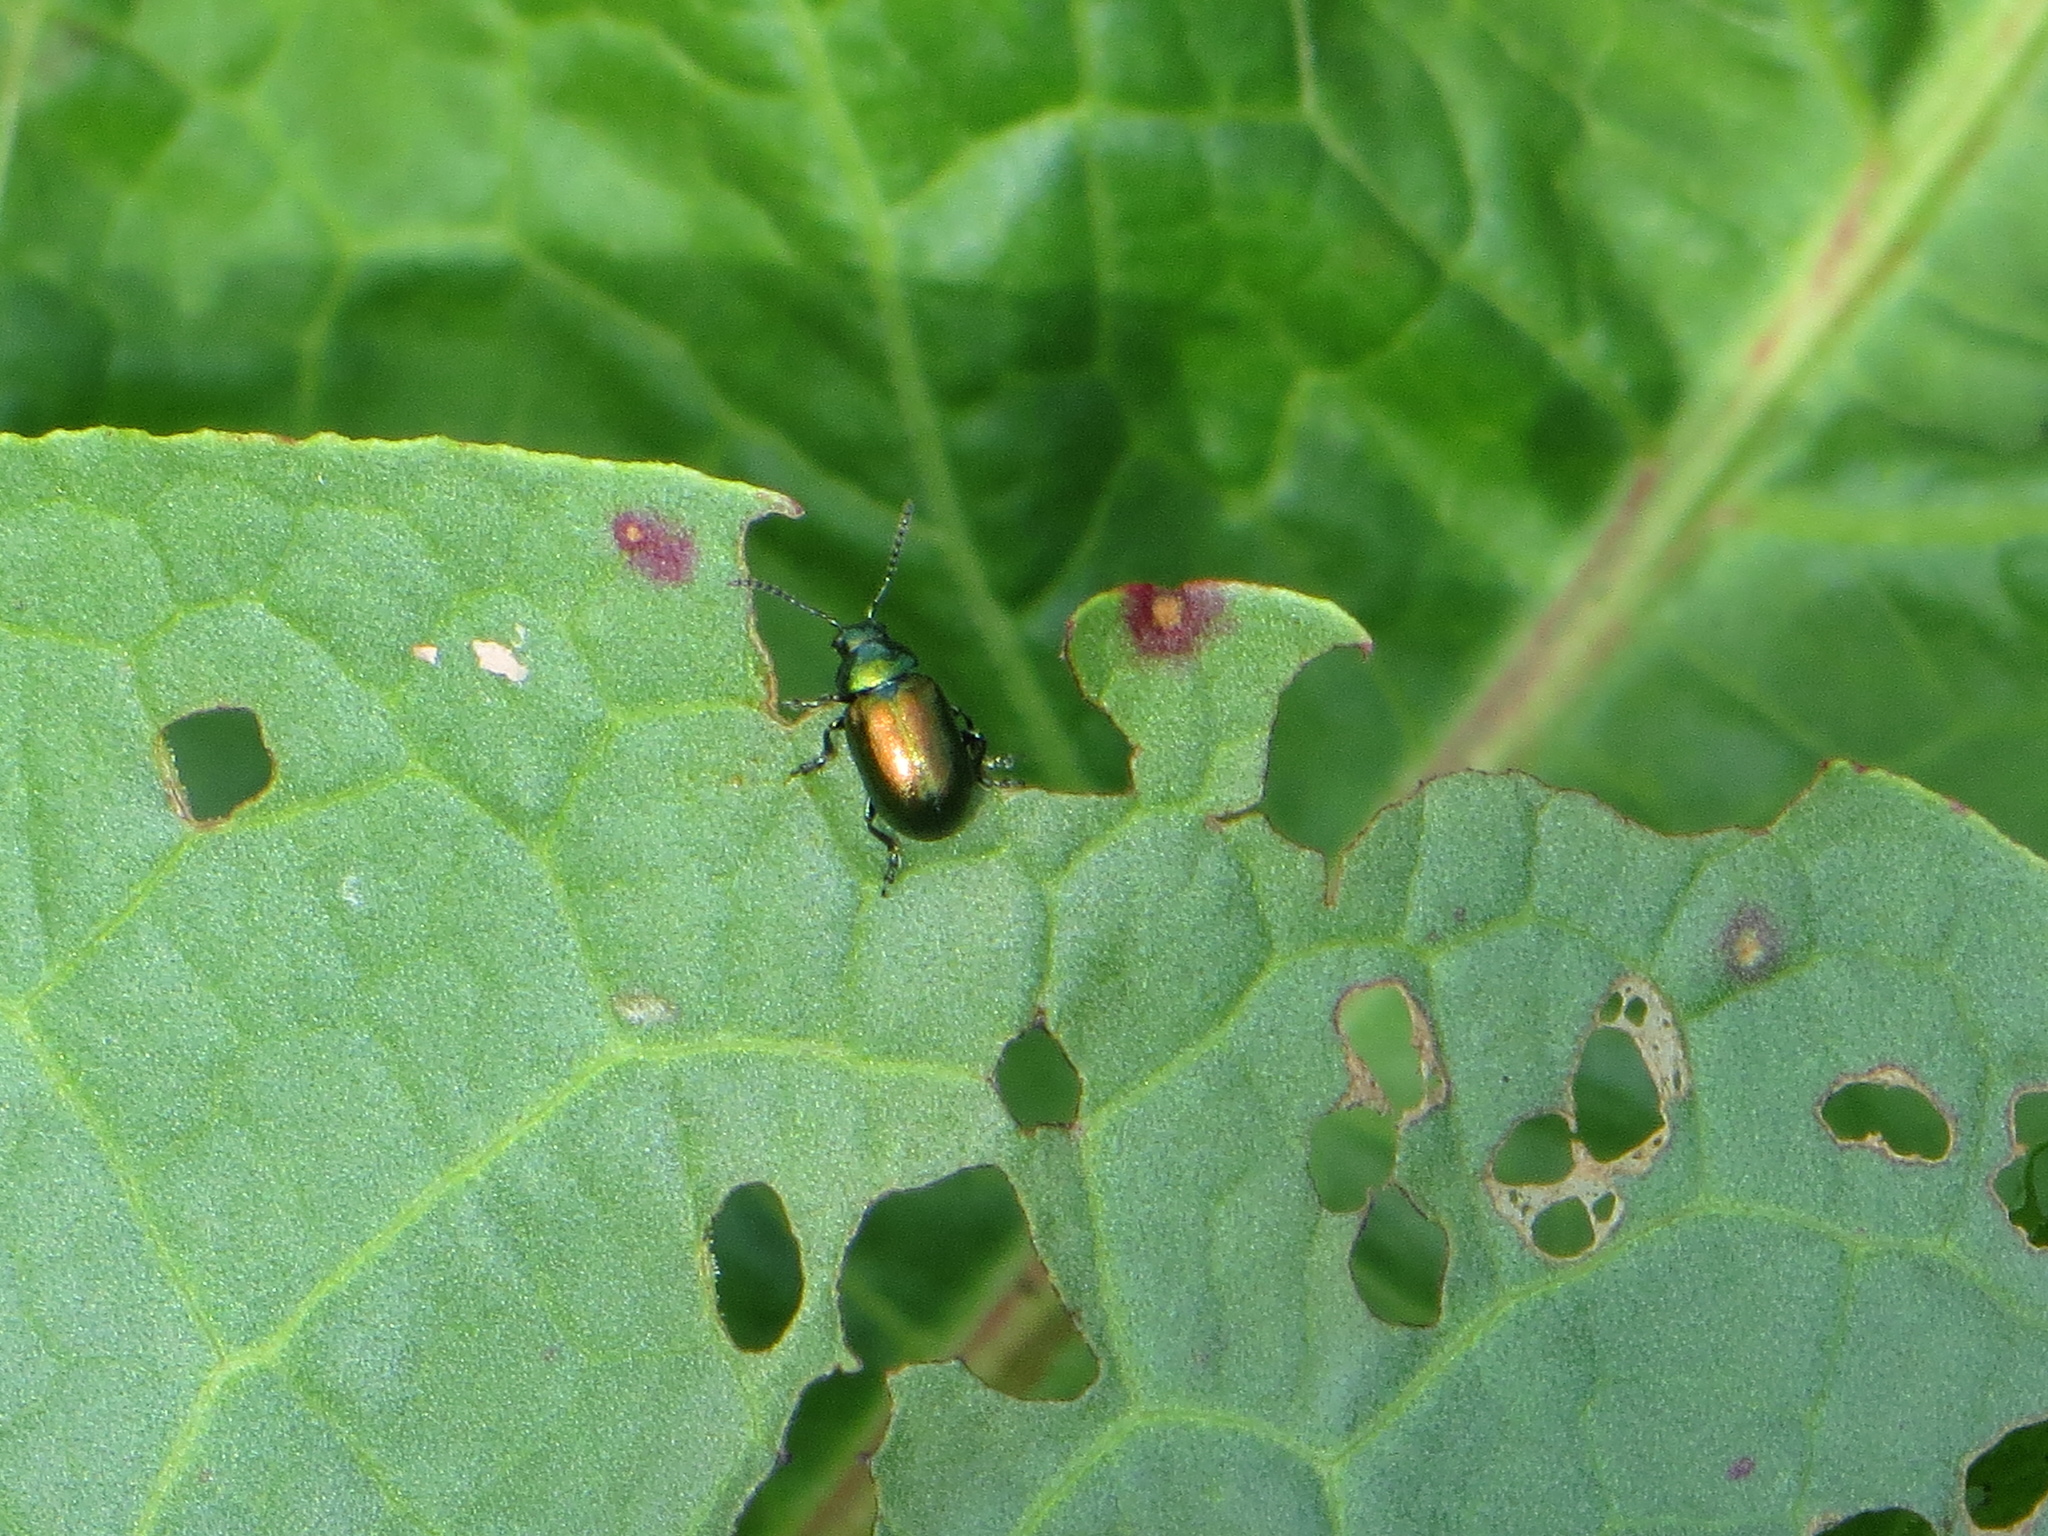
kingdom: Animalia
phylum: Arthropoda
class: Insecta
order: Coleoptera
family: Chrysomelidae
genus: Gastrophysa
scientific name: Gastrophysa viridula
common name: Green dock beetle
